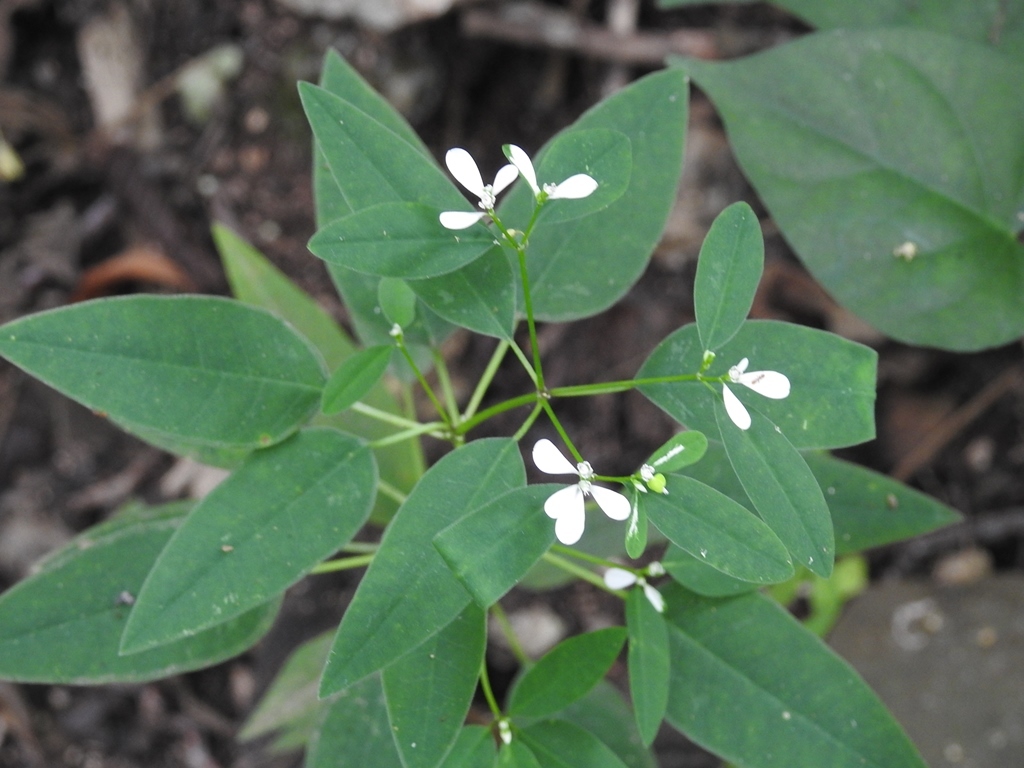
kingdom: Plantae
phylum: Tracheophyta
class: Magnoliopsida
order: Malpighiales
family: Euphorbiaceae
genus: Euphorbia
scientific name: Euphorbia ariensis
